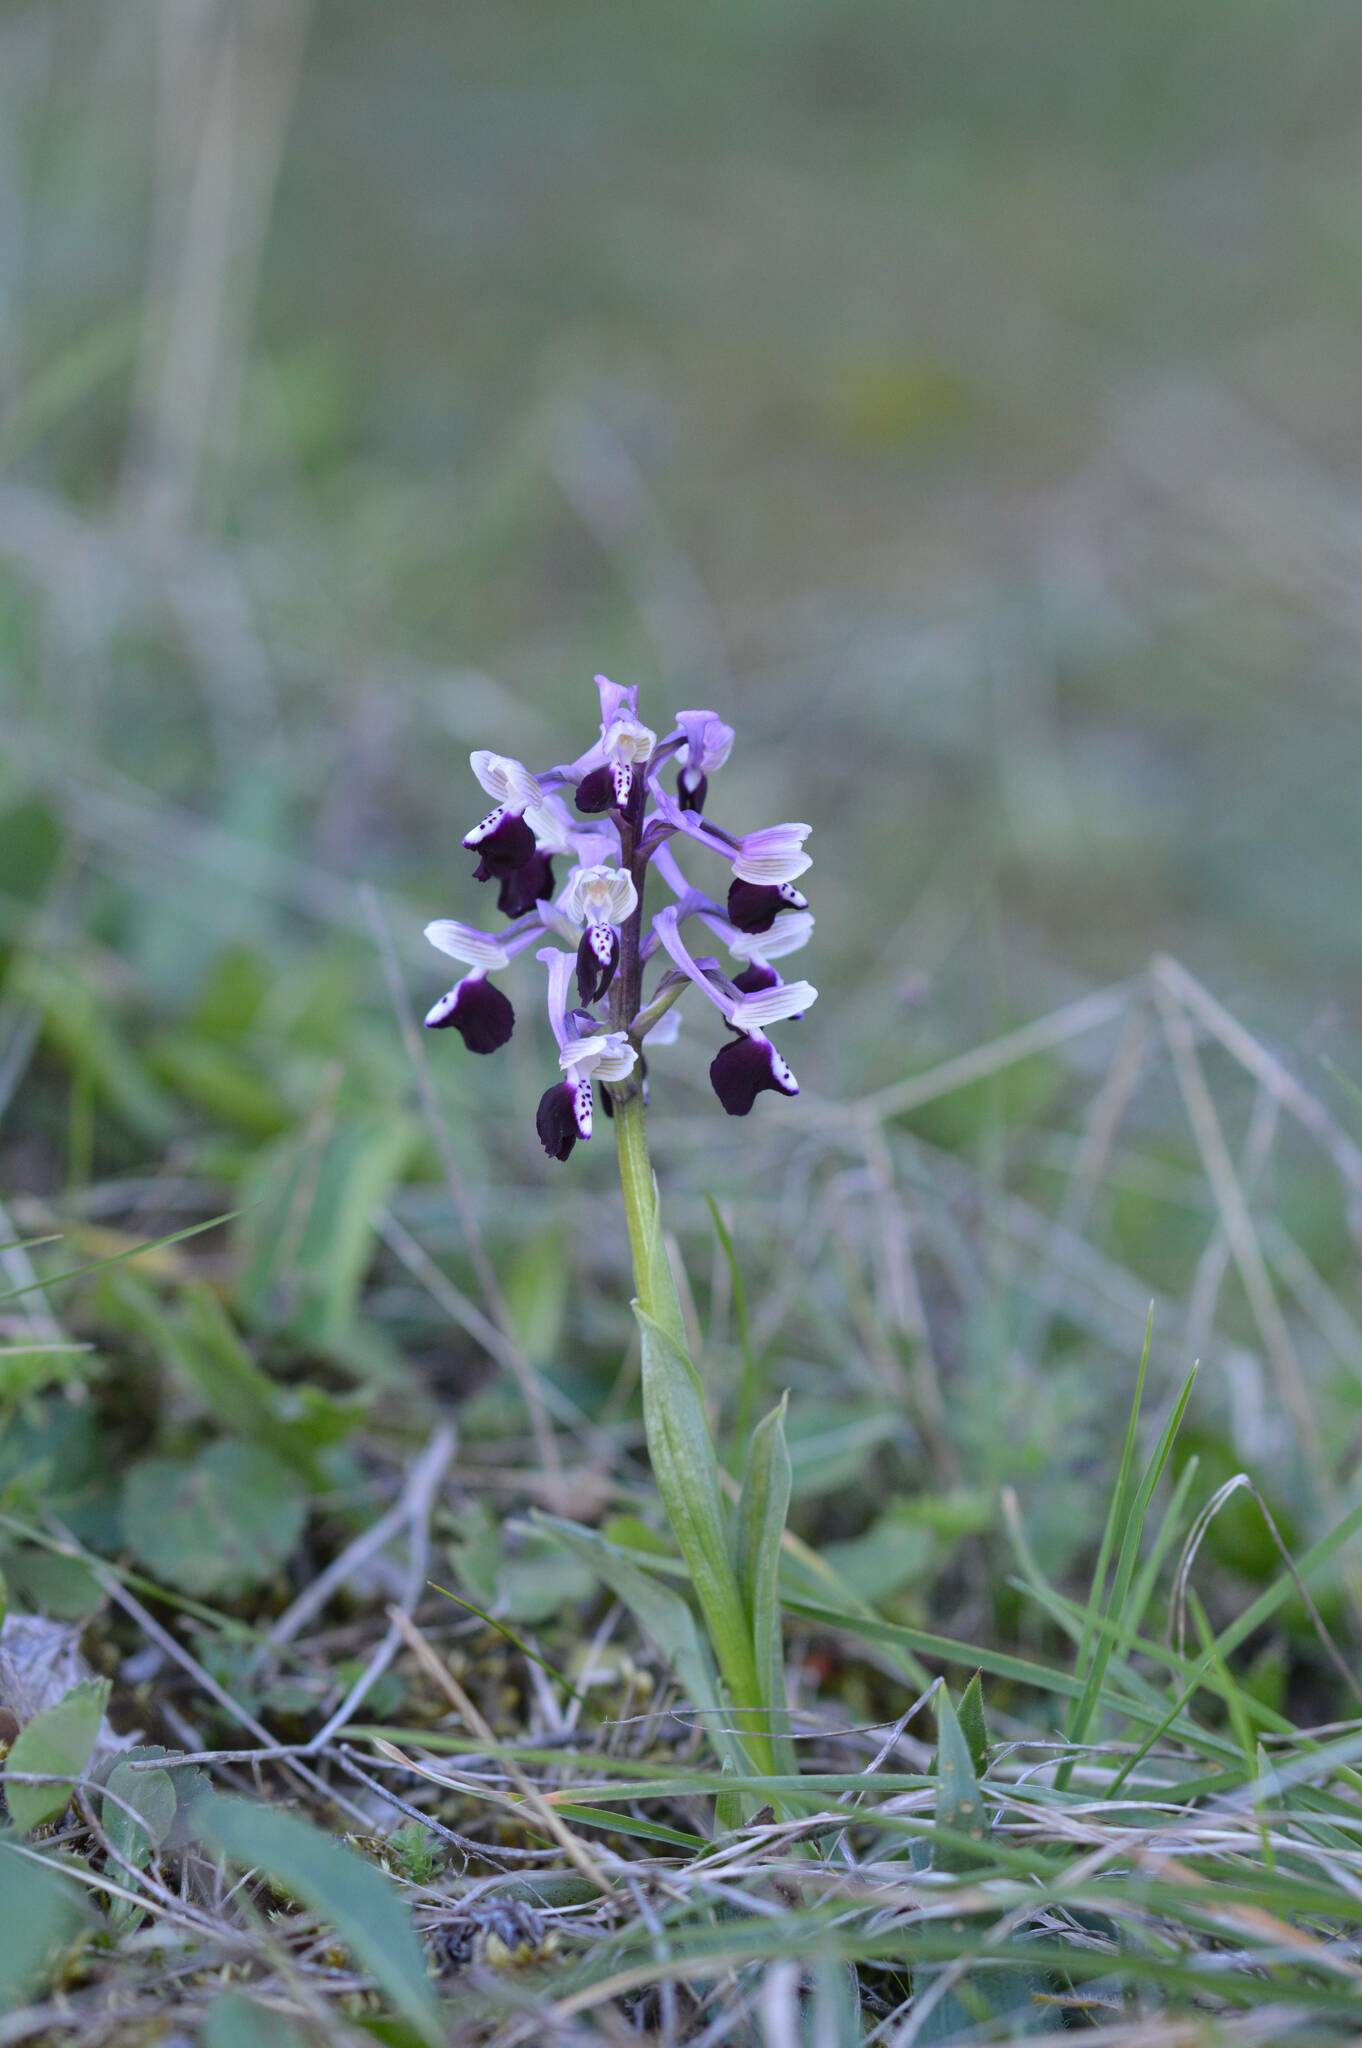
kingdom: Plantae
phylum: Tracheophyta
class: Liliopsida
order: Asparagales
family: Orchidaceae
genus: Anacamptis
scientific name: Anacamptis morio
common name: Green-winged orchid
